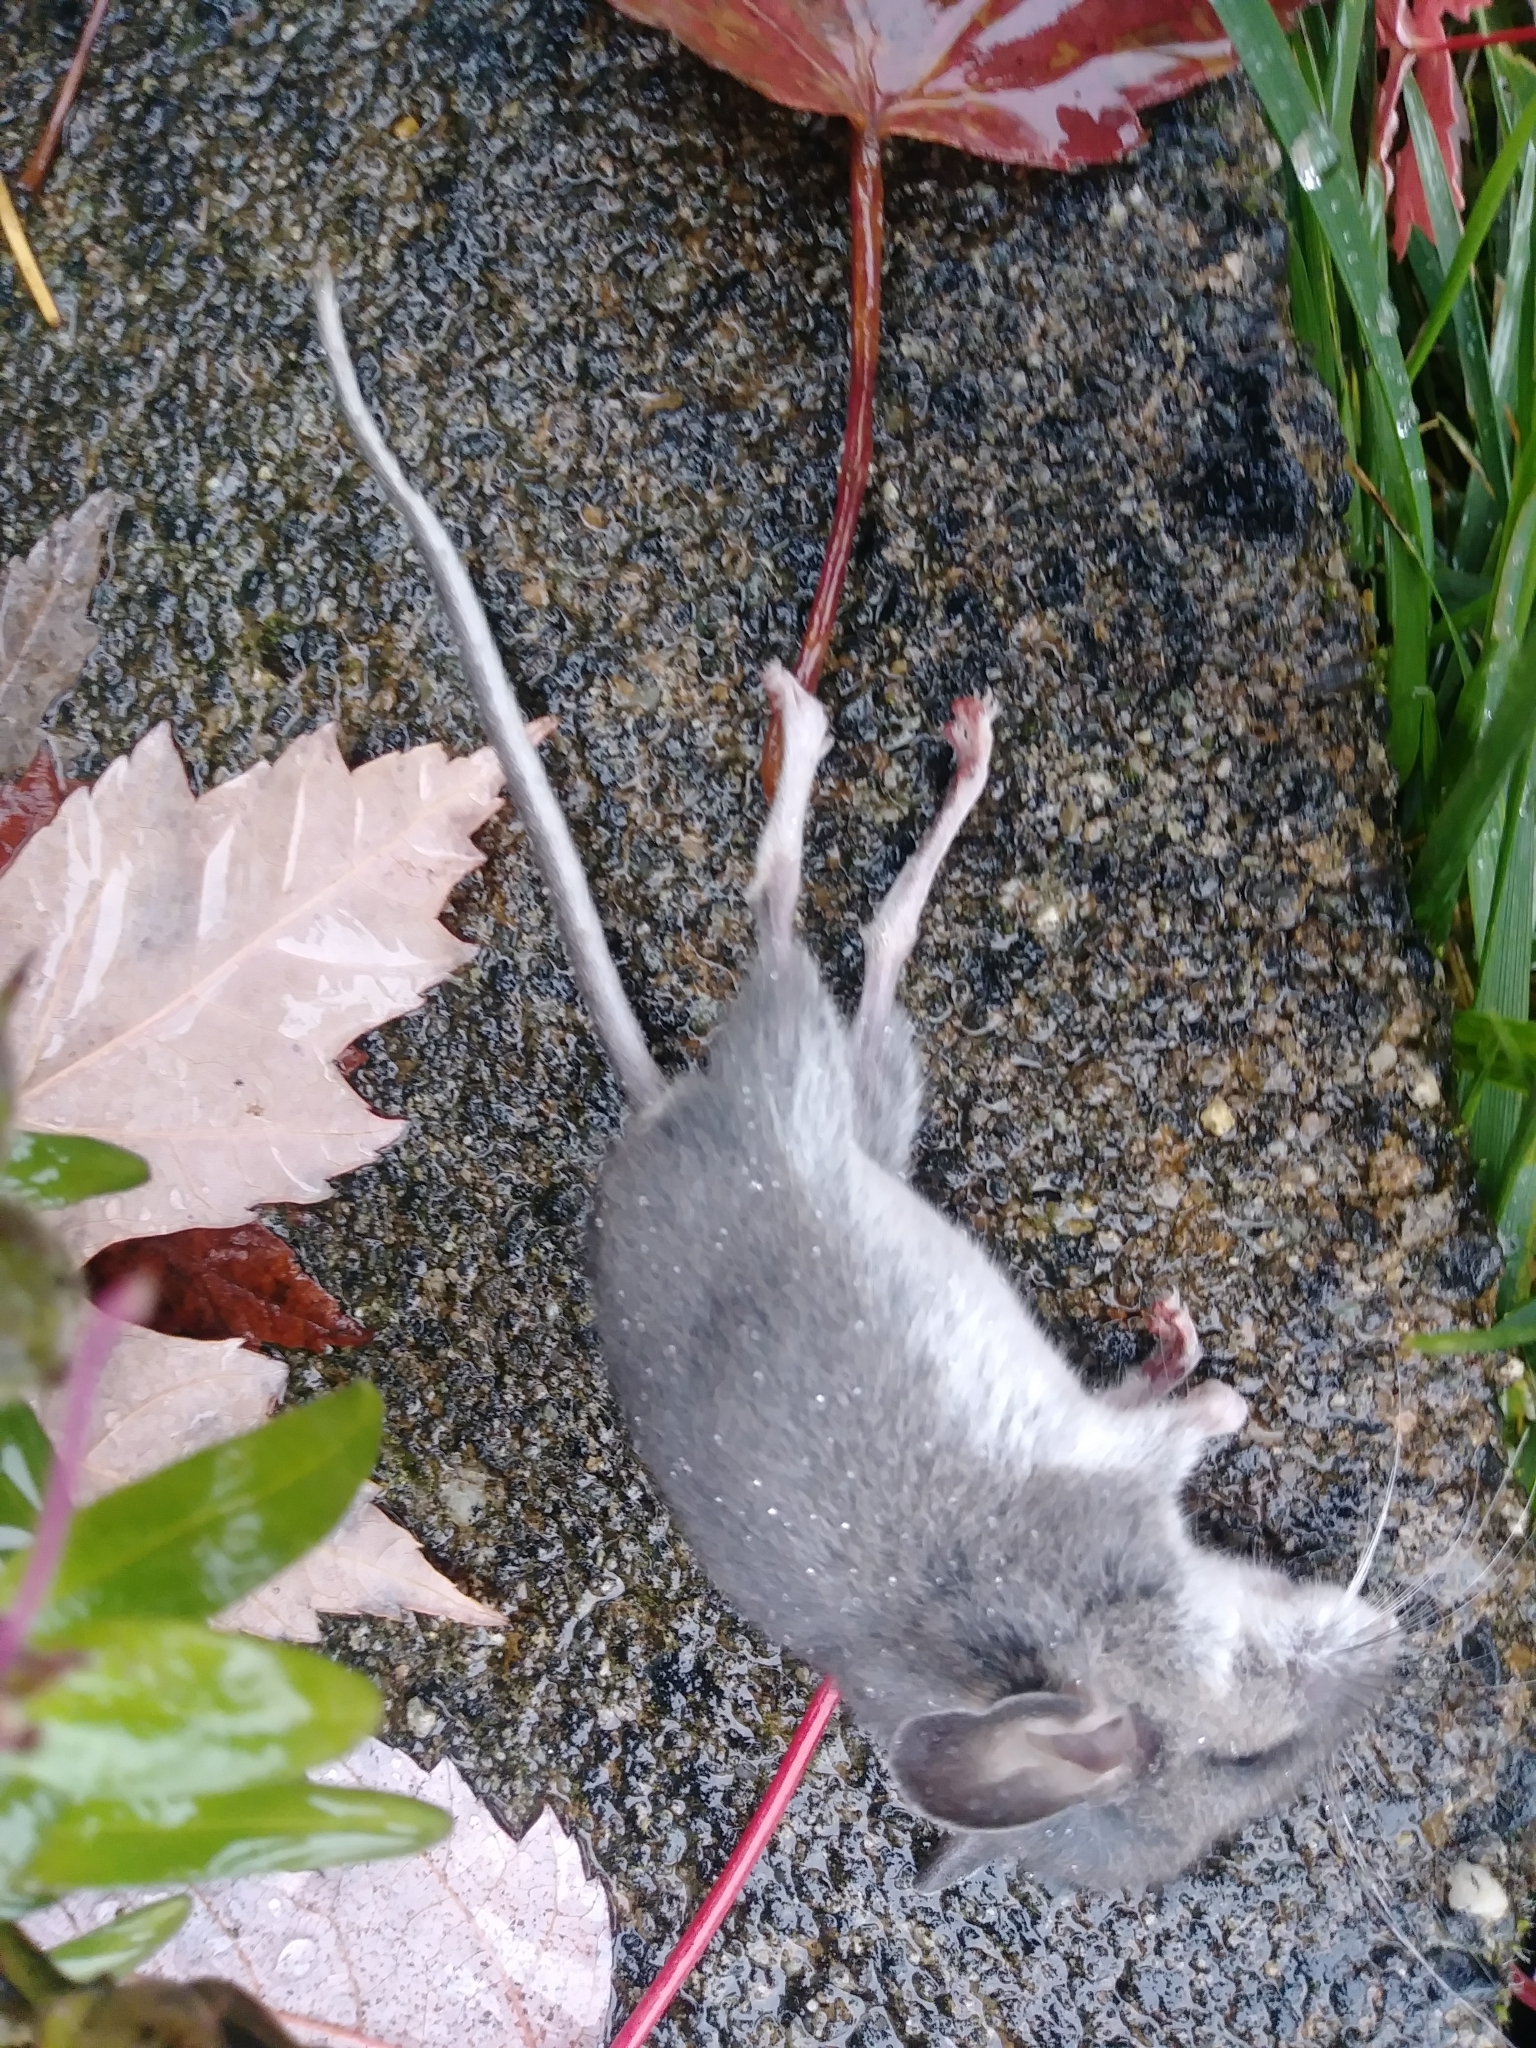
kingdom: Animalia
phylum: Chordata
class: Mammalia
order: Rodentia
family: Cricetidae
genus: Peromyscus
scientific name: Peromyscus maniculatus
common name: Deer mouse
